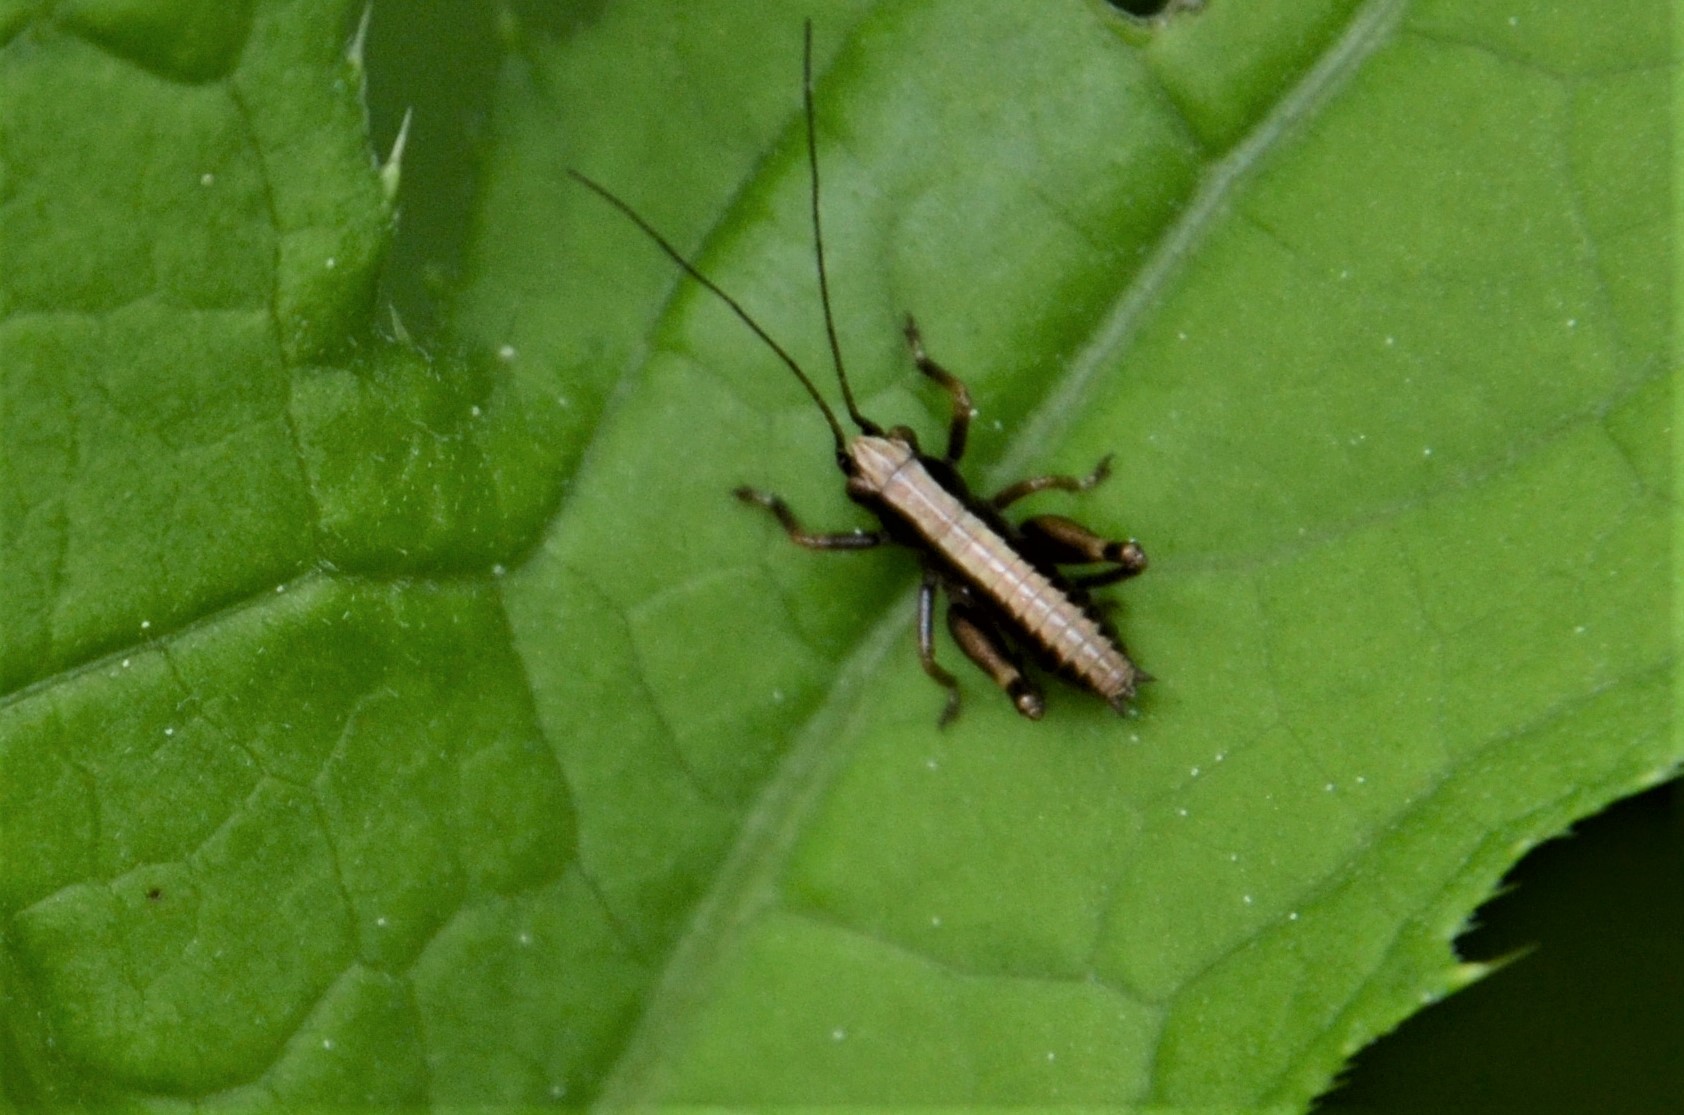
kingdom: Animalia
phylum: Arthropoda
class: Insecta
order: Orthoptera
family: Tettigoniidae
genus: Pholidoptera
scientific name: Pholidoptera griseoaptera
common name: Dark bush-cricket
